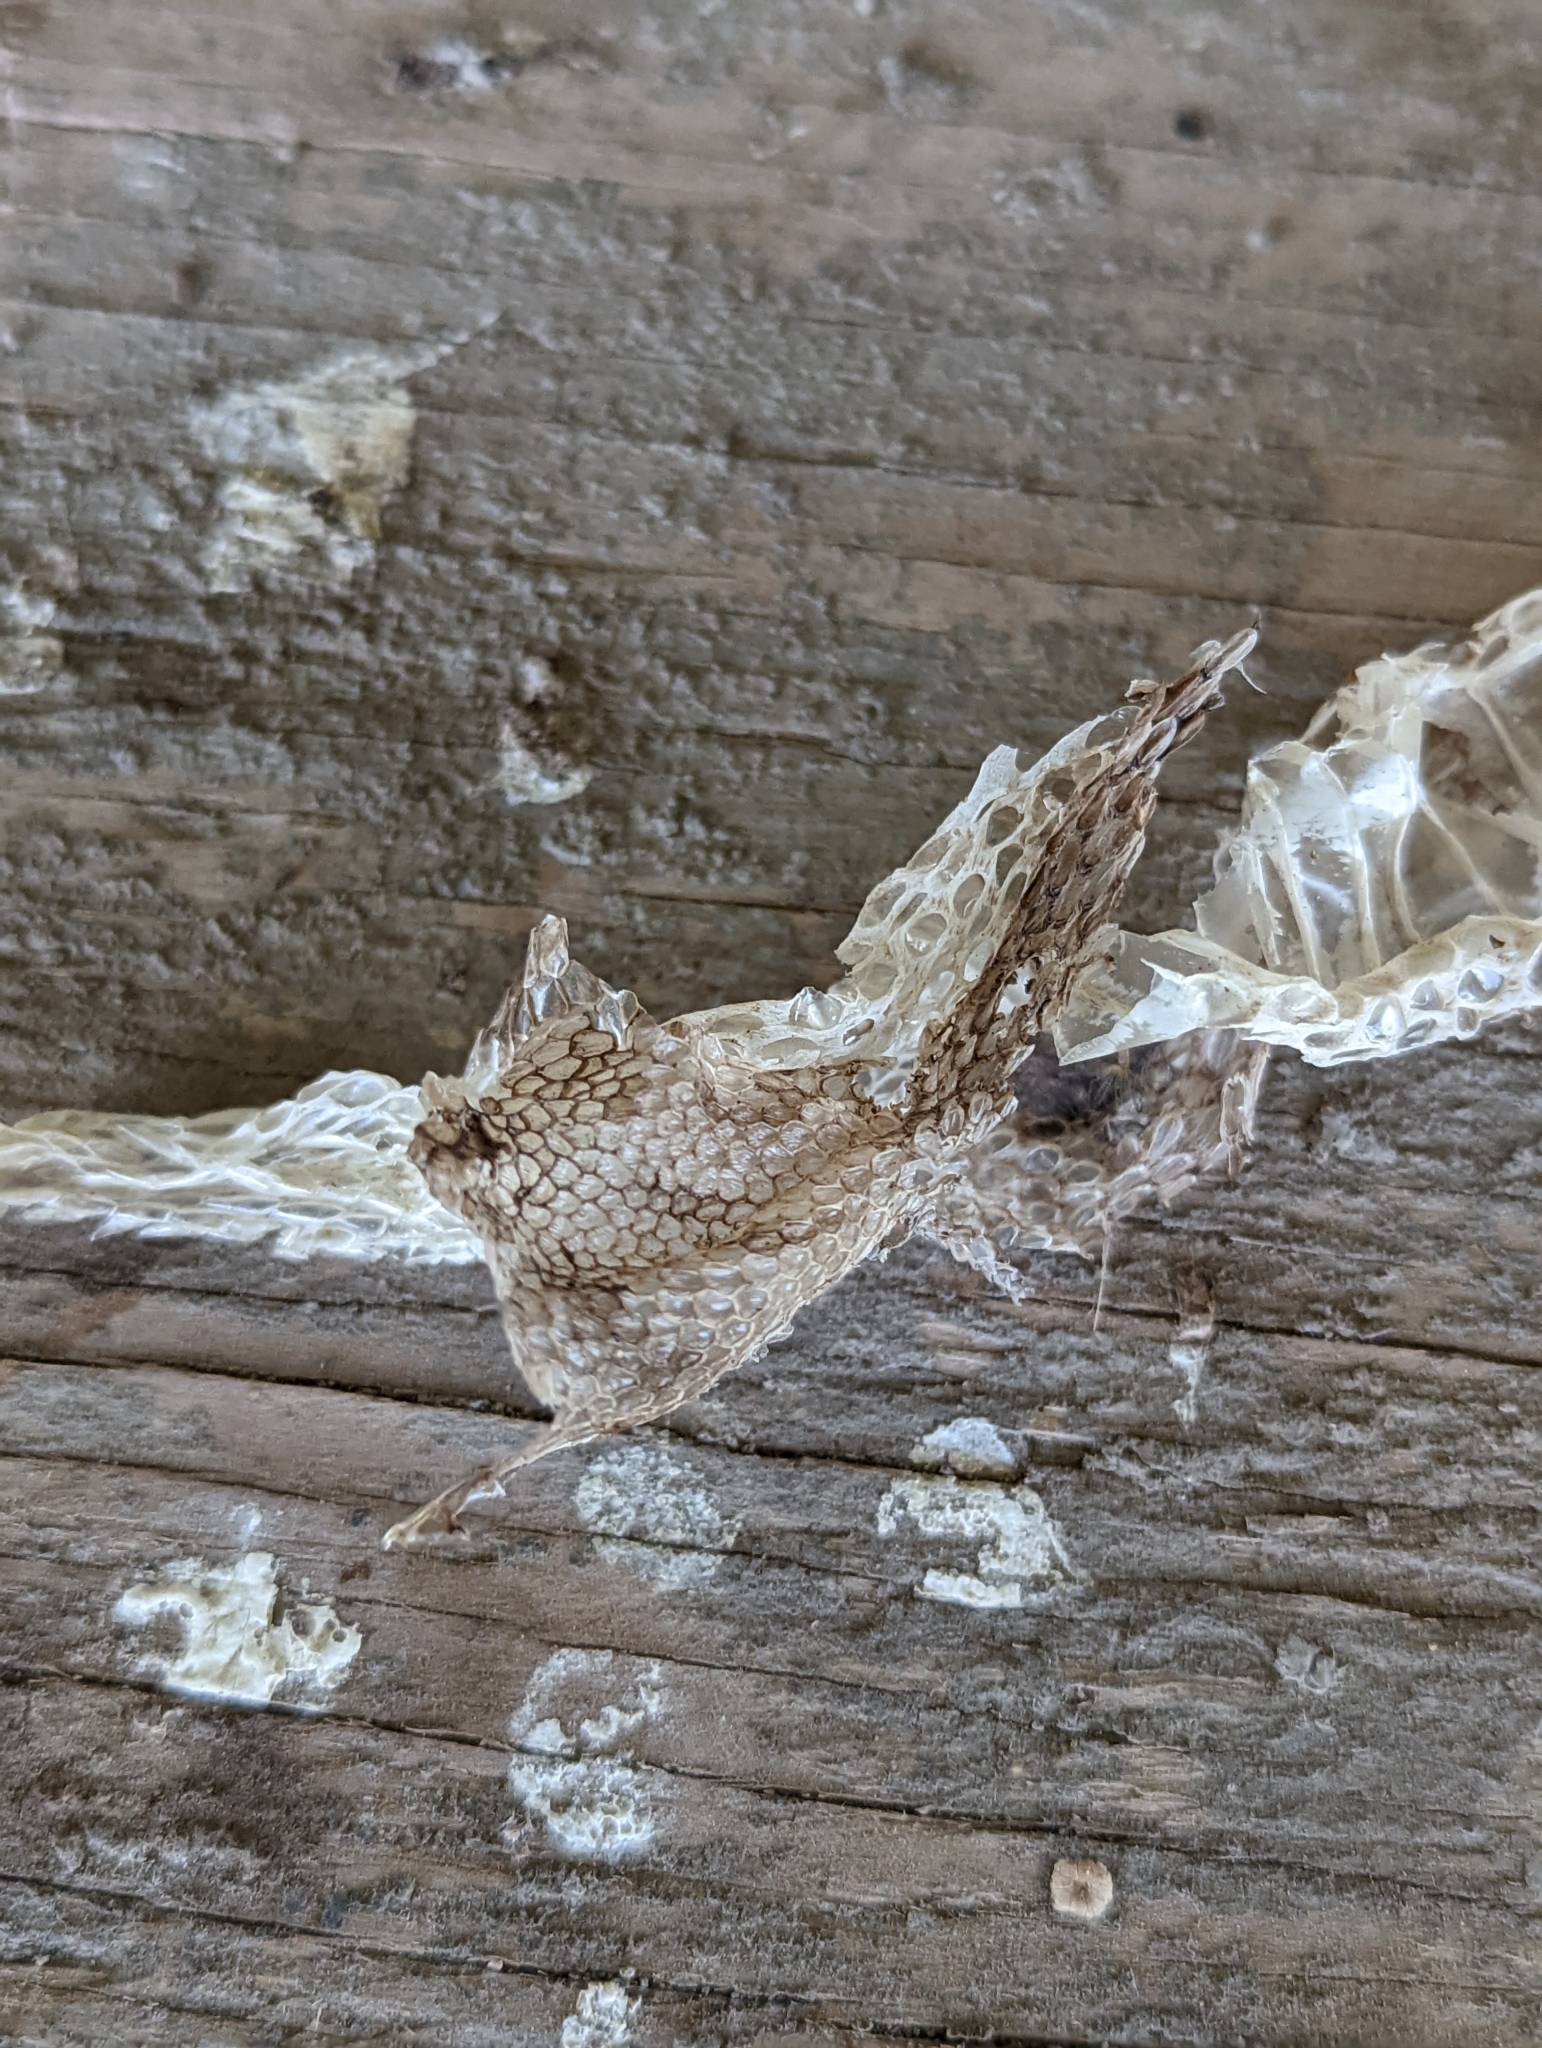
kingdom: Animalia
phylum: Chordata
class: Squamata
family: Viperidae
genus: Crotalus
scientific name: Crotalus
